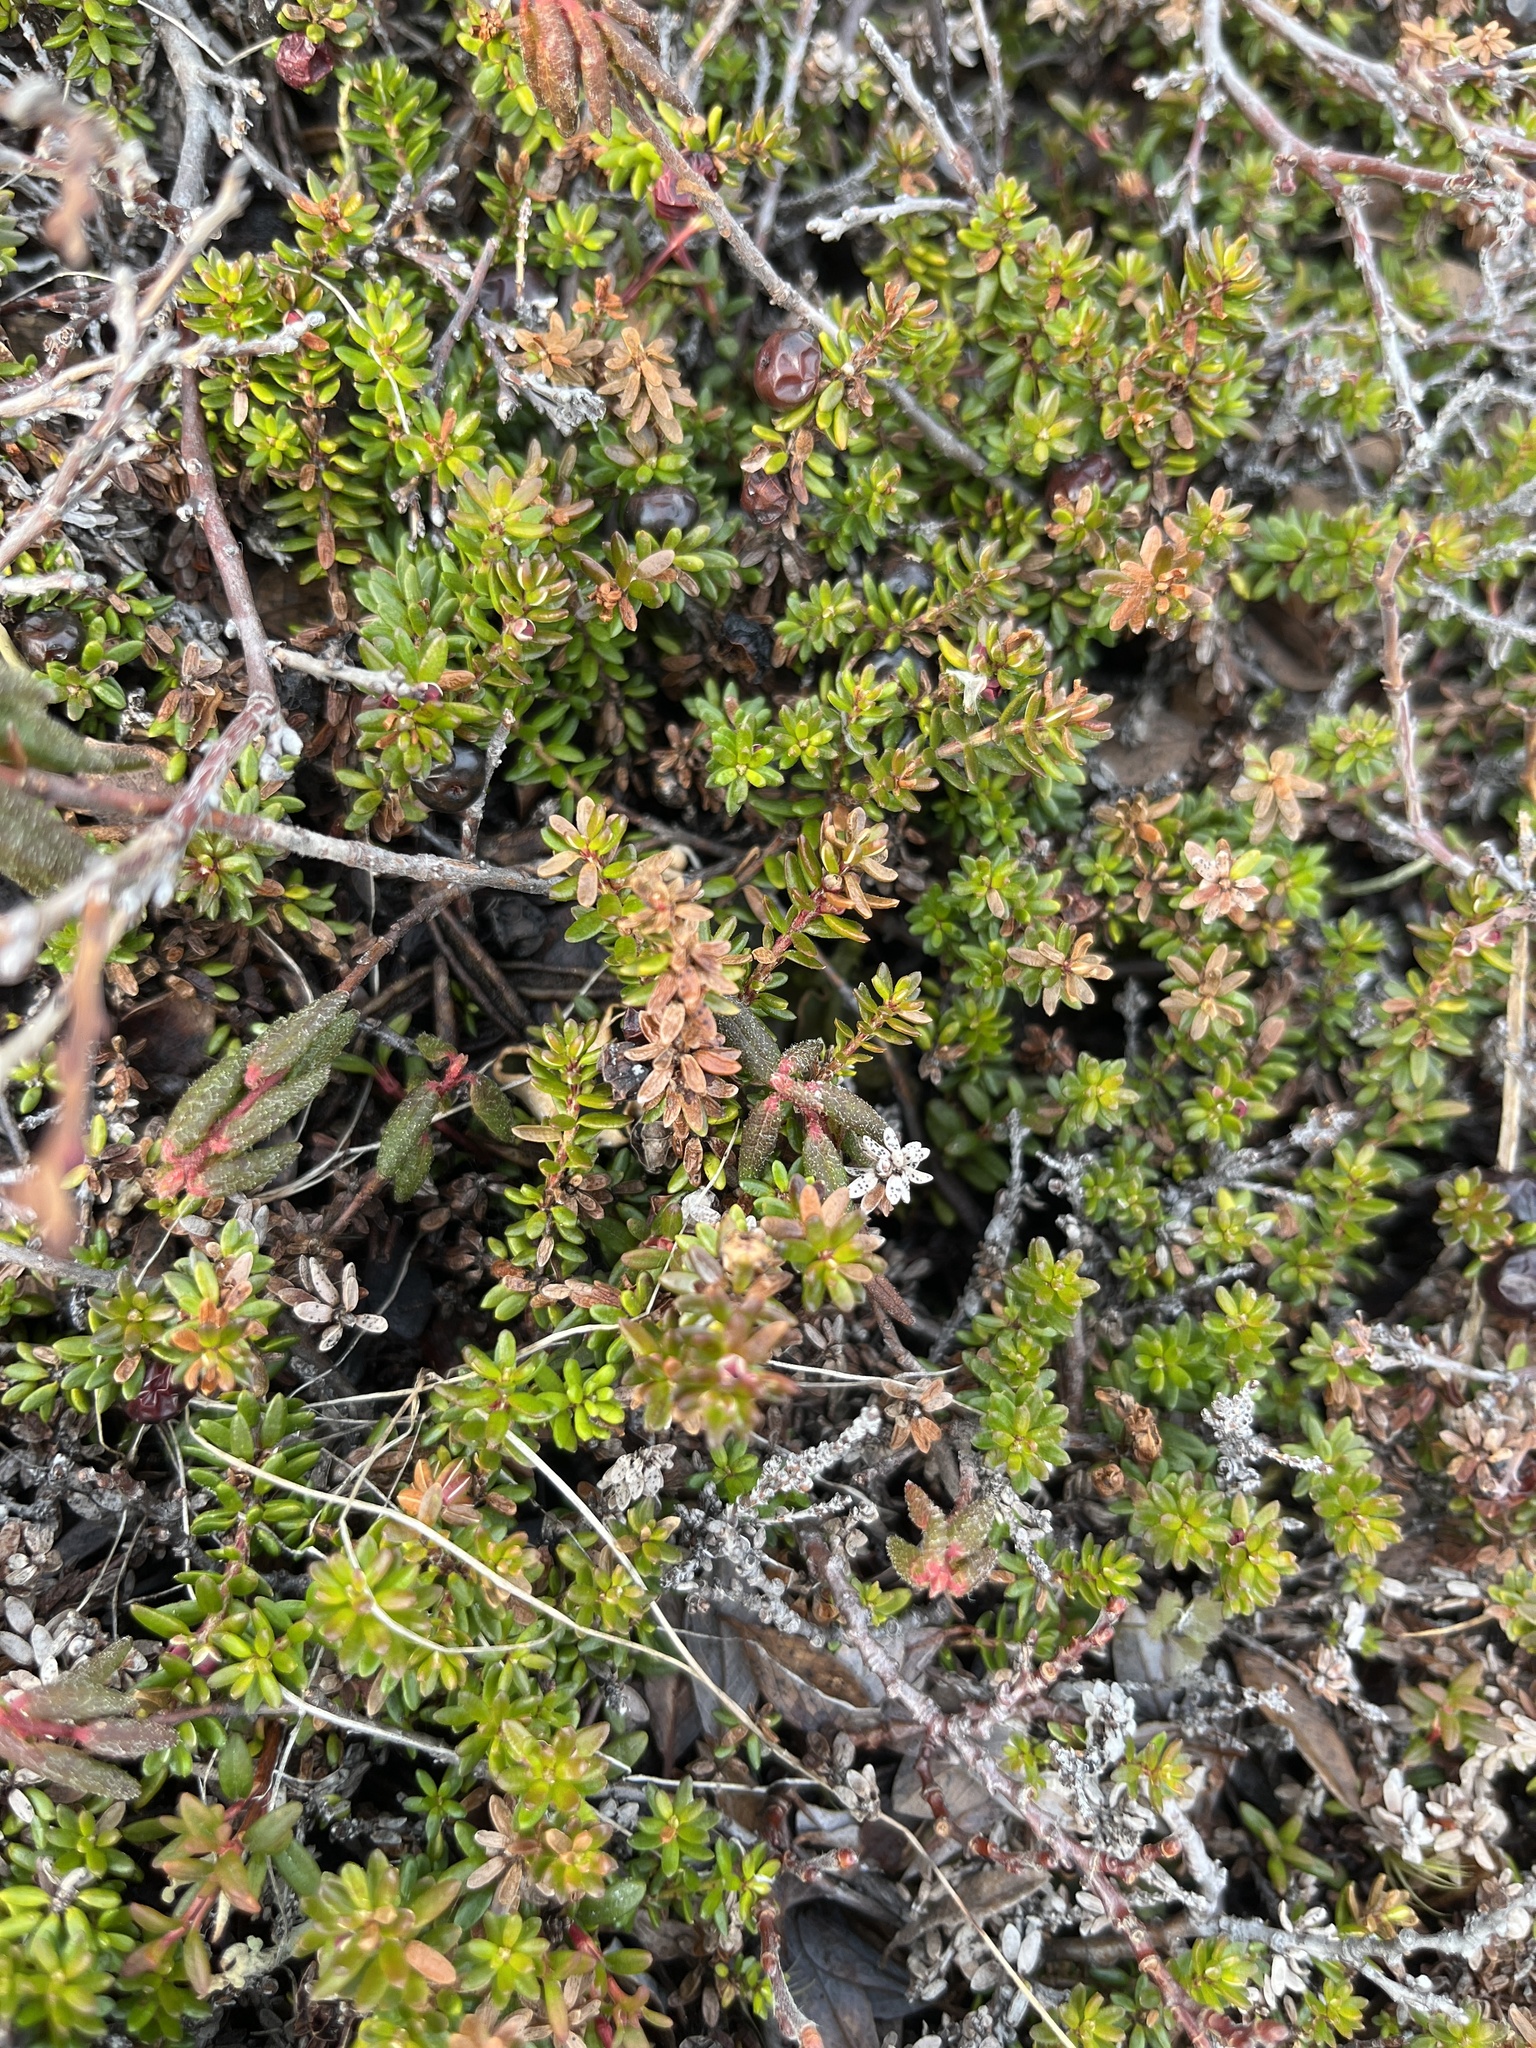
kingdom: Plantae
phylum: Tracheophyta
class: Magnoliopsida
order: Ericales
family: Ericaceae
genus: Empetrum
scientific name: Empetrum hermaphroditum
